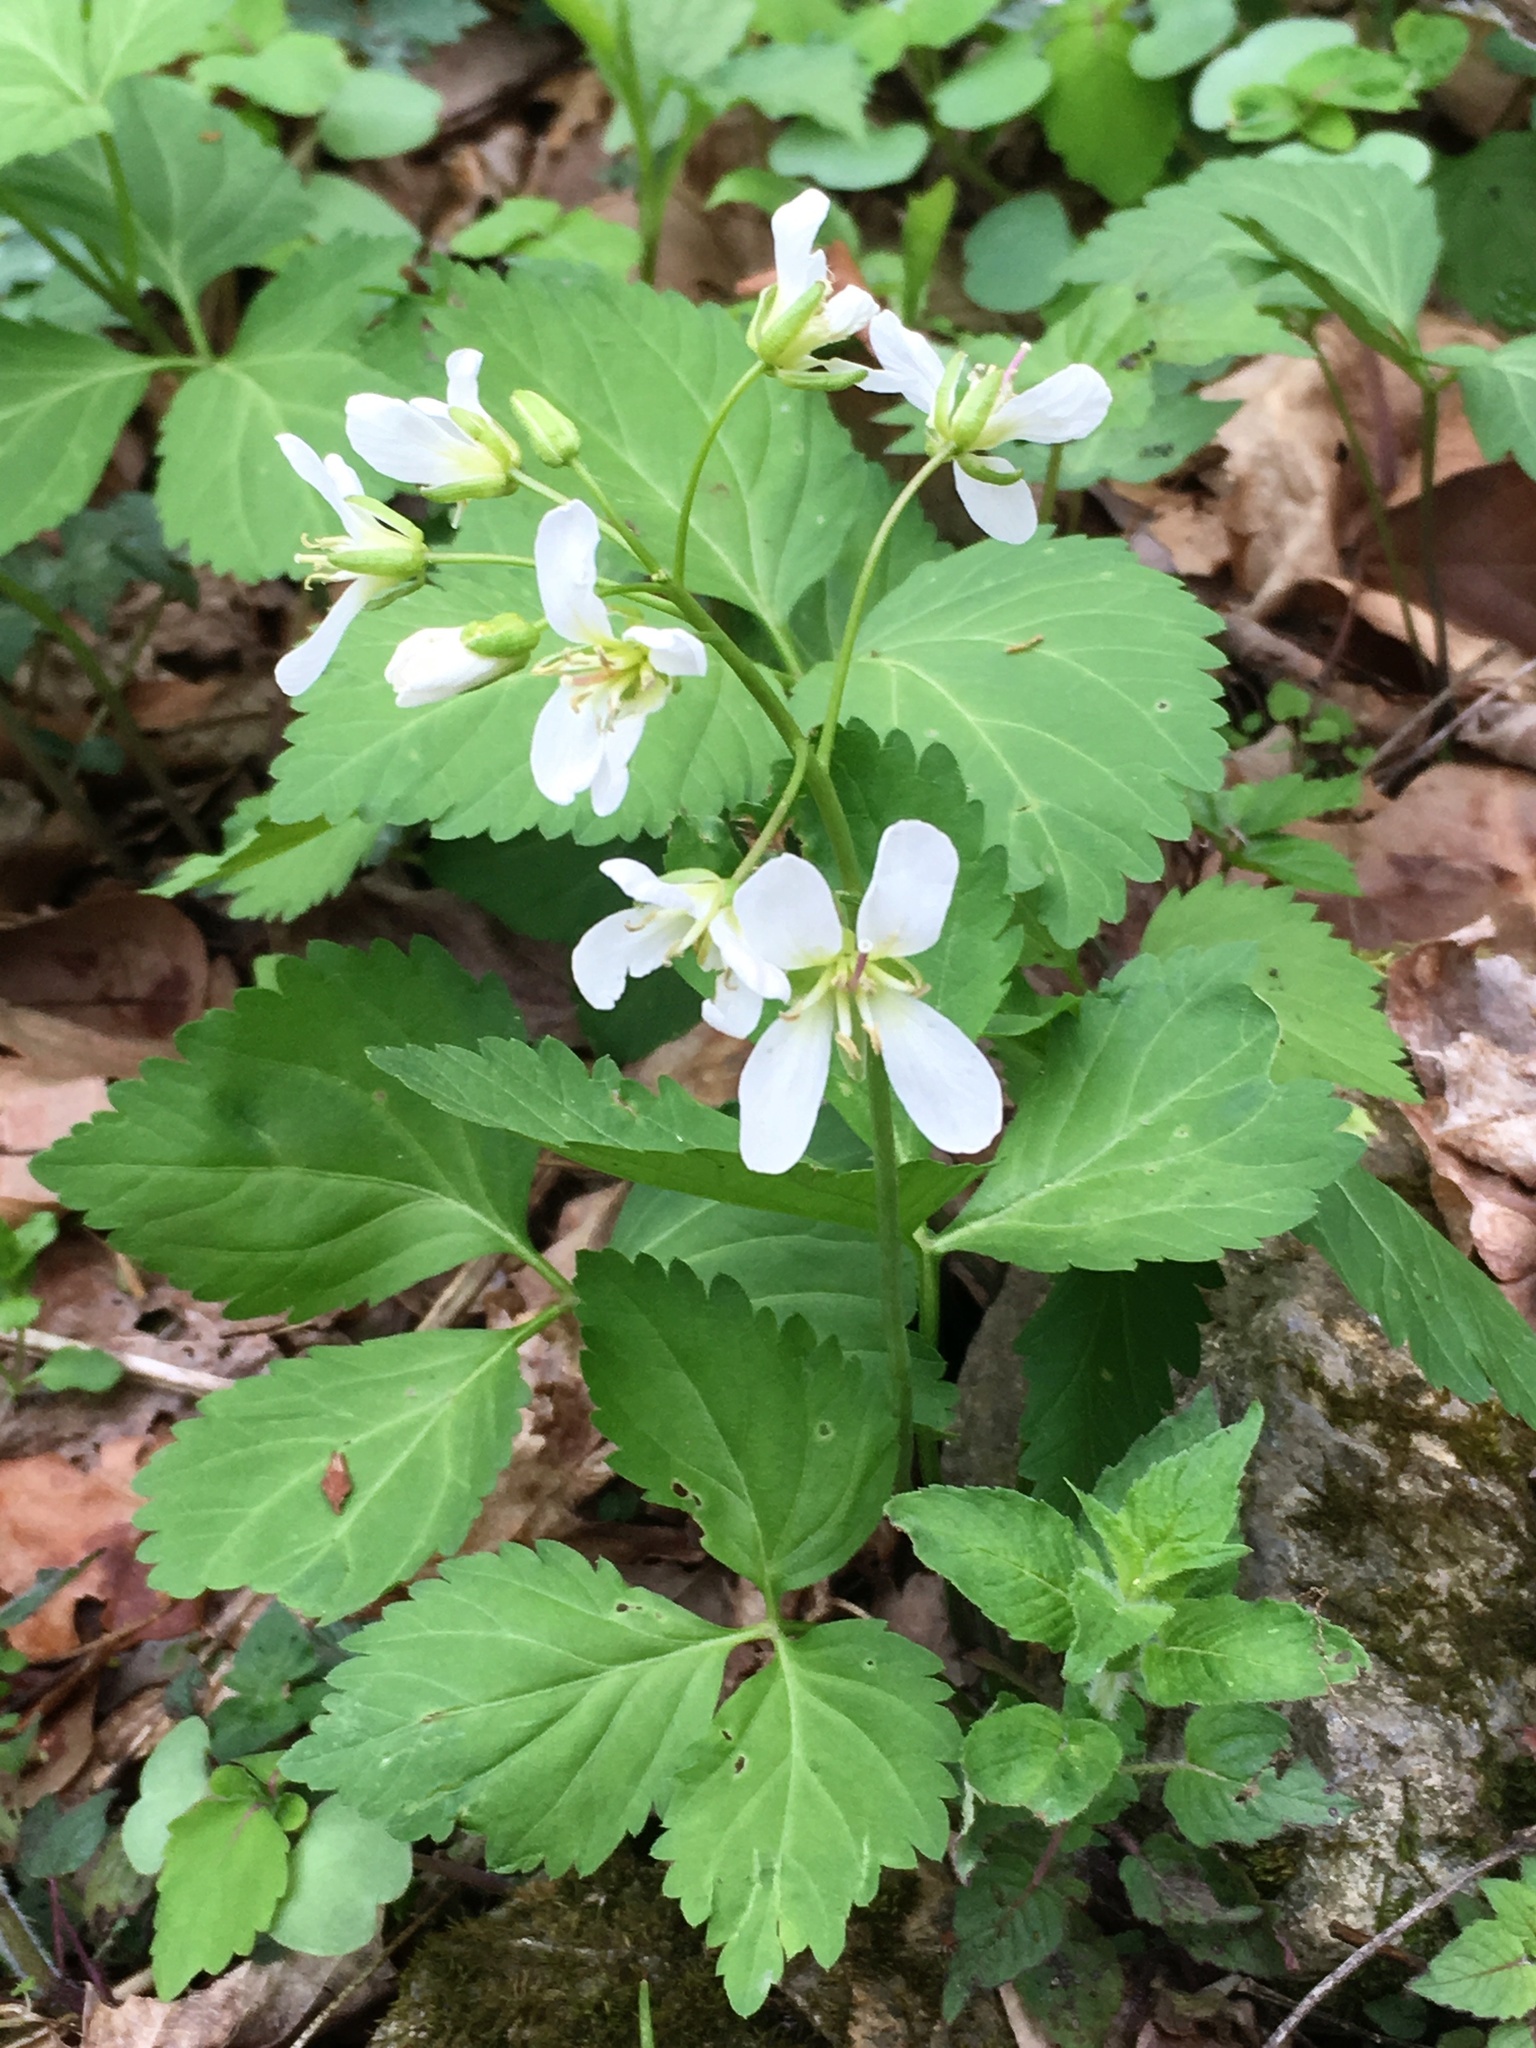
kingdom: Plantae
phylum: Tracheophyta
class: Magnoliopsida
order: Brassicales
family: Brassicaceae
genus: Cardamine
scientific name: Cardamine diphylla
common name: Broad-leaved toothwort
